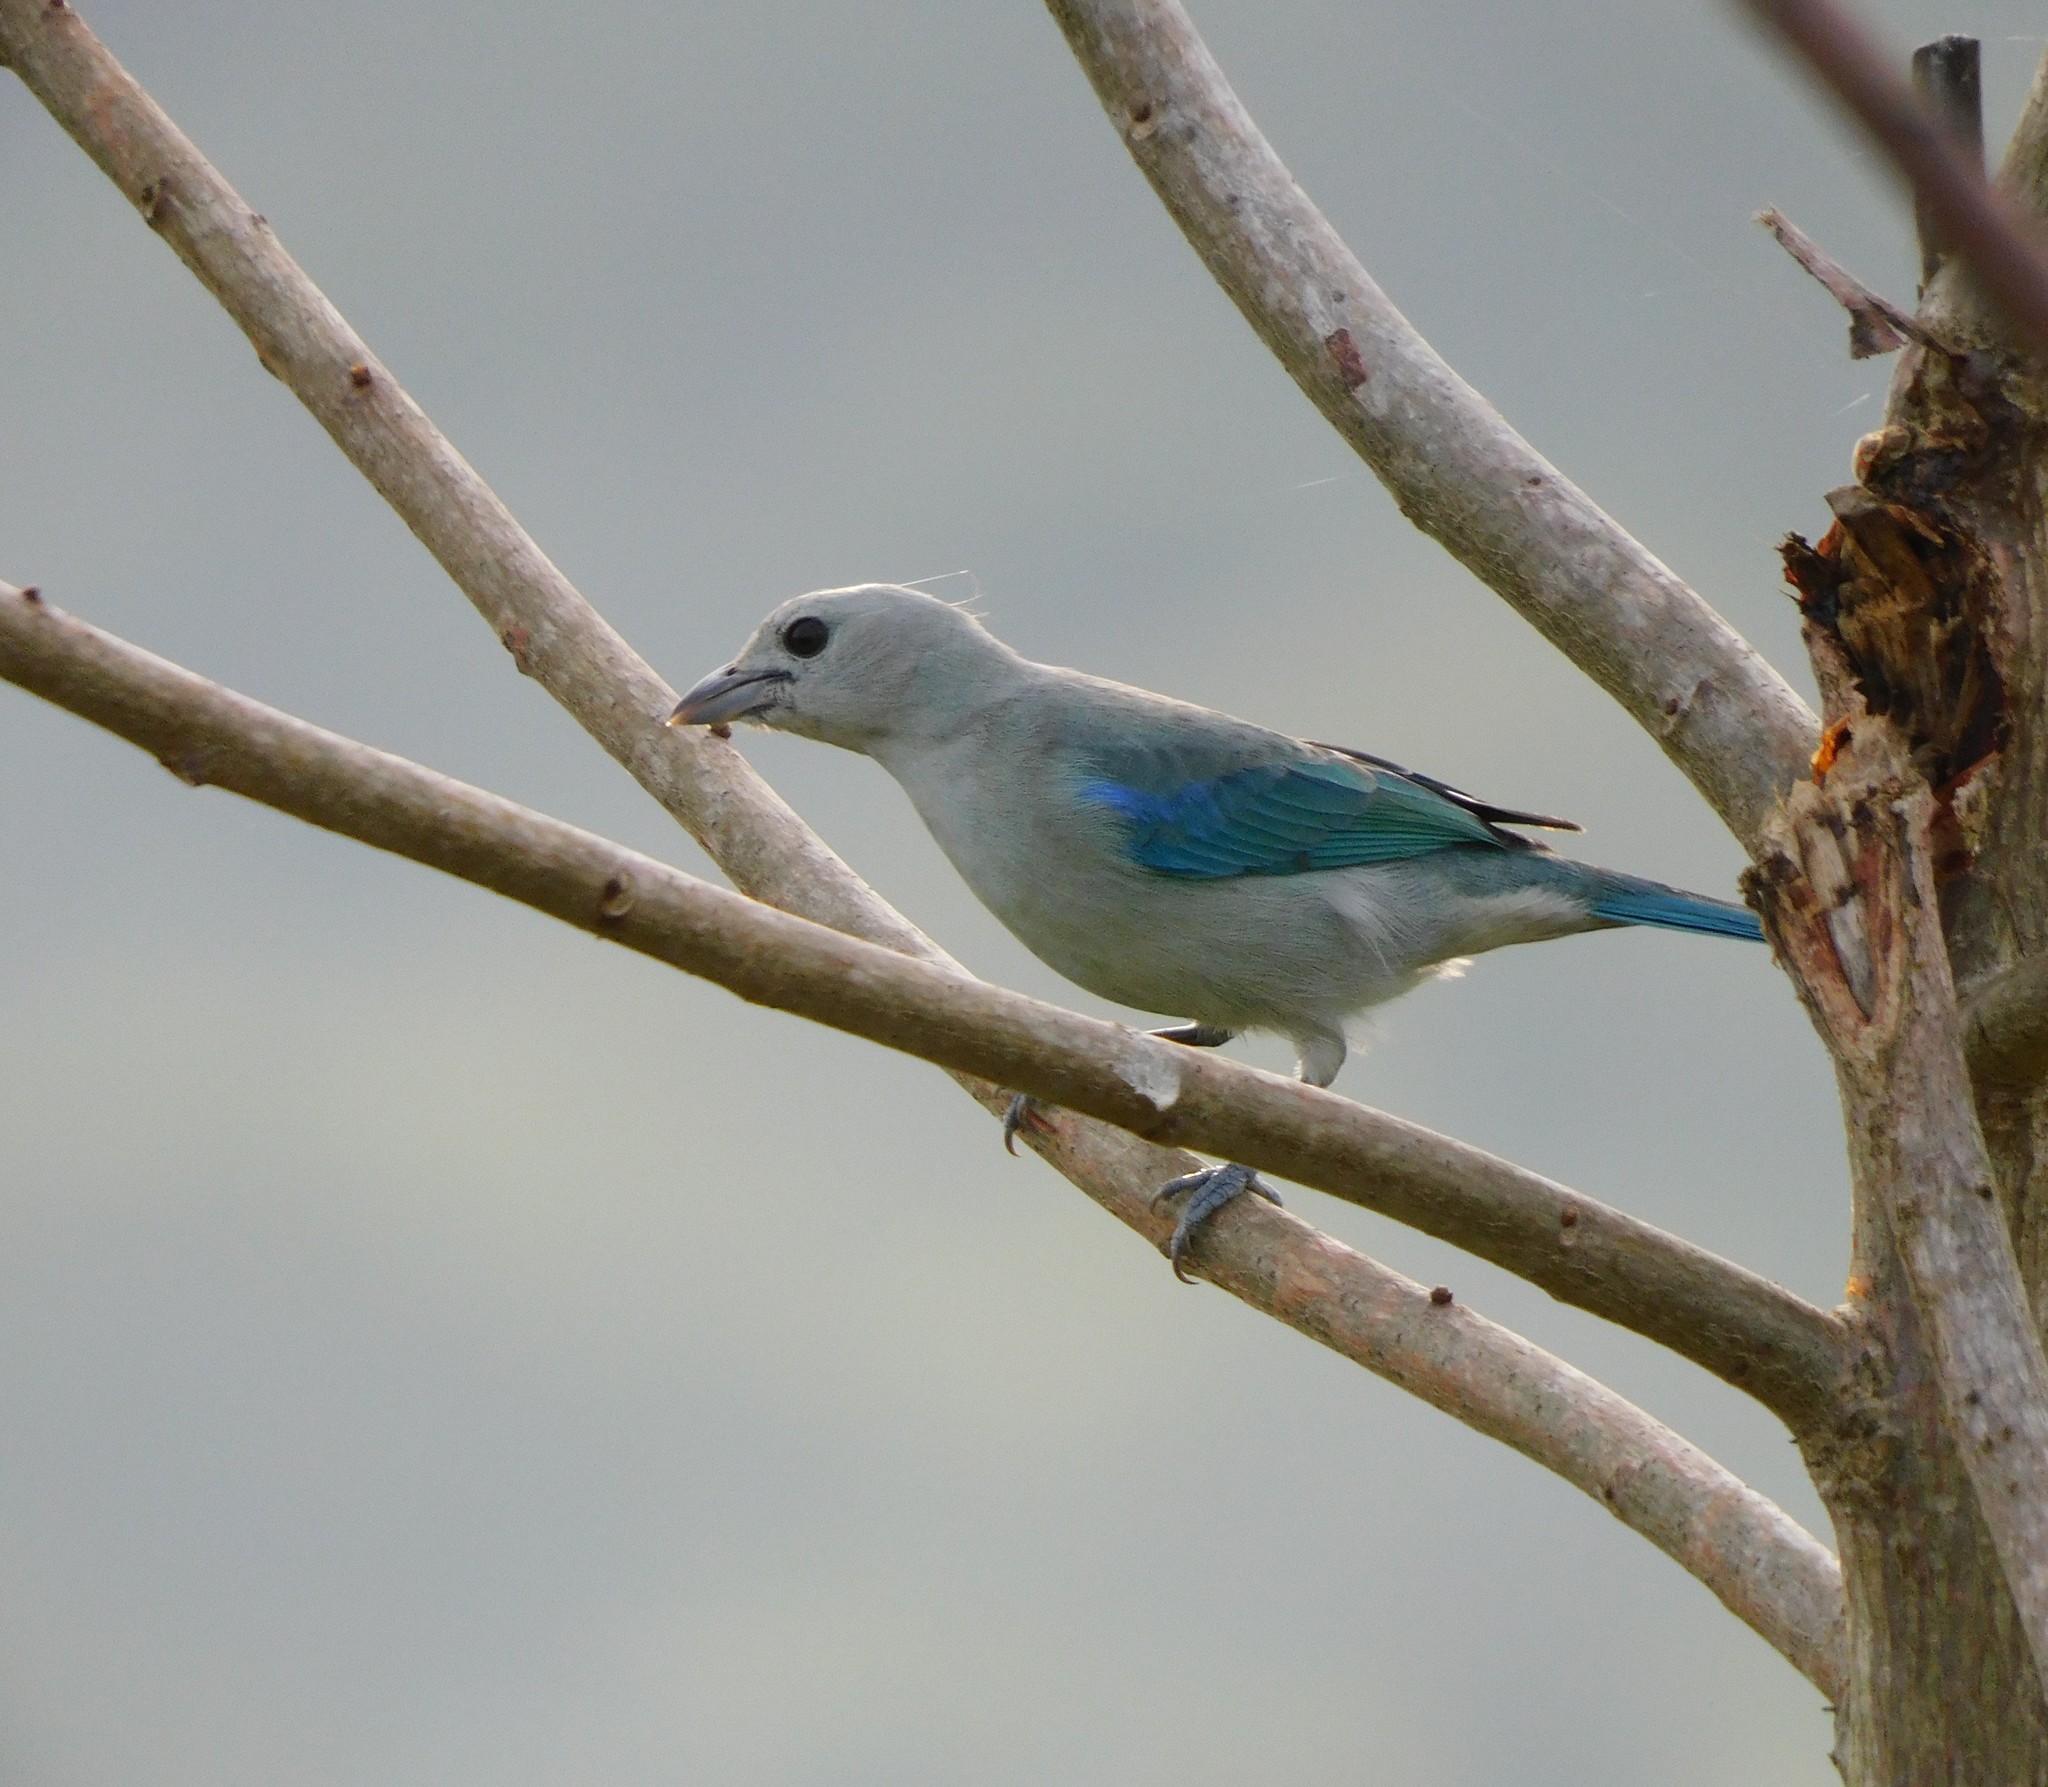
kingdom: Animalia
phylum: Chordata
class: Aves
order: Passeriformes
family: Thraupidae
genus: Thraupis
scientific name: Thraupis episcopus
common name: Blue-grey tanager
